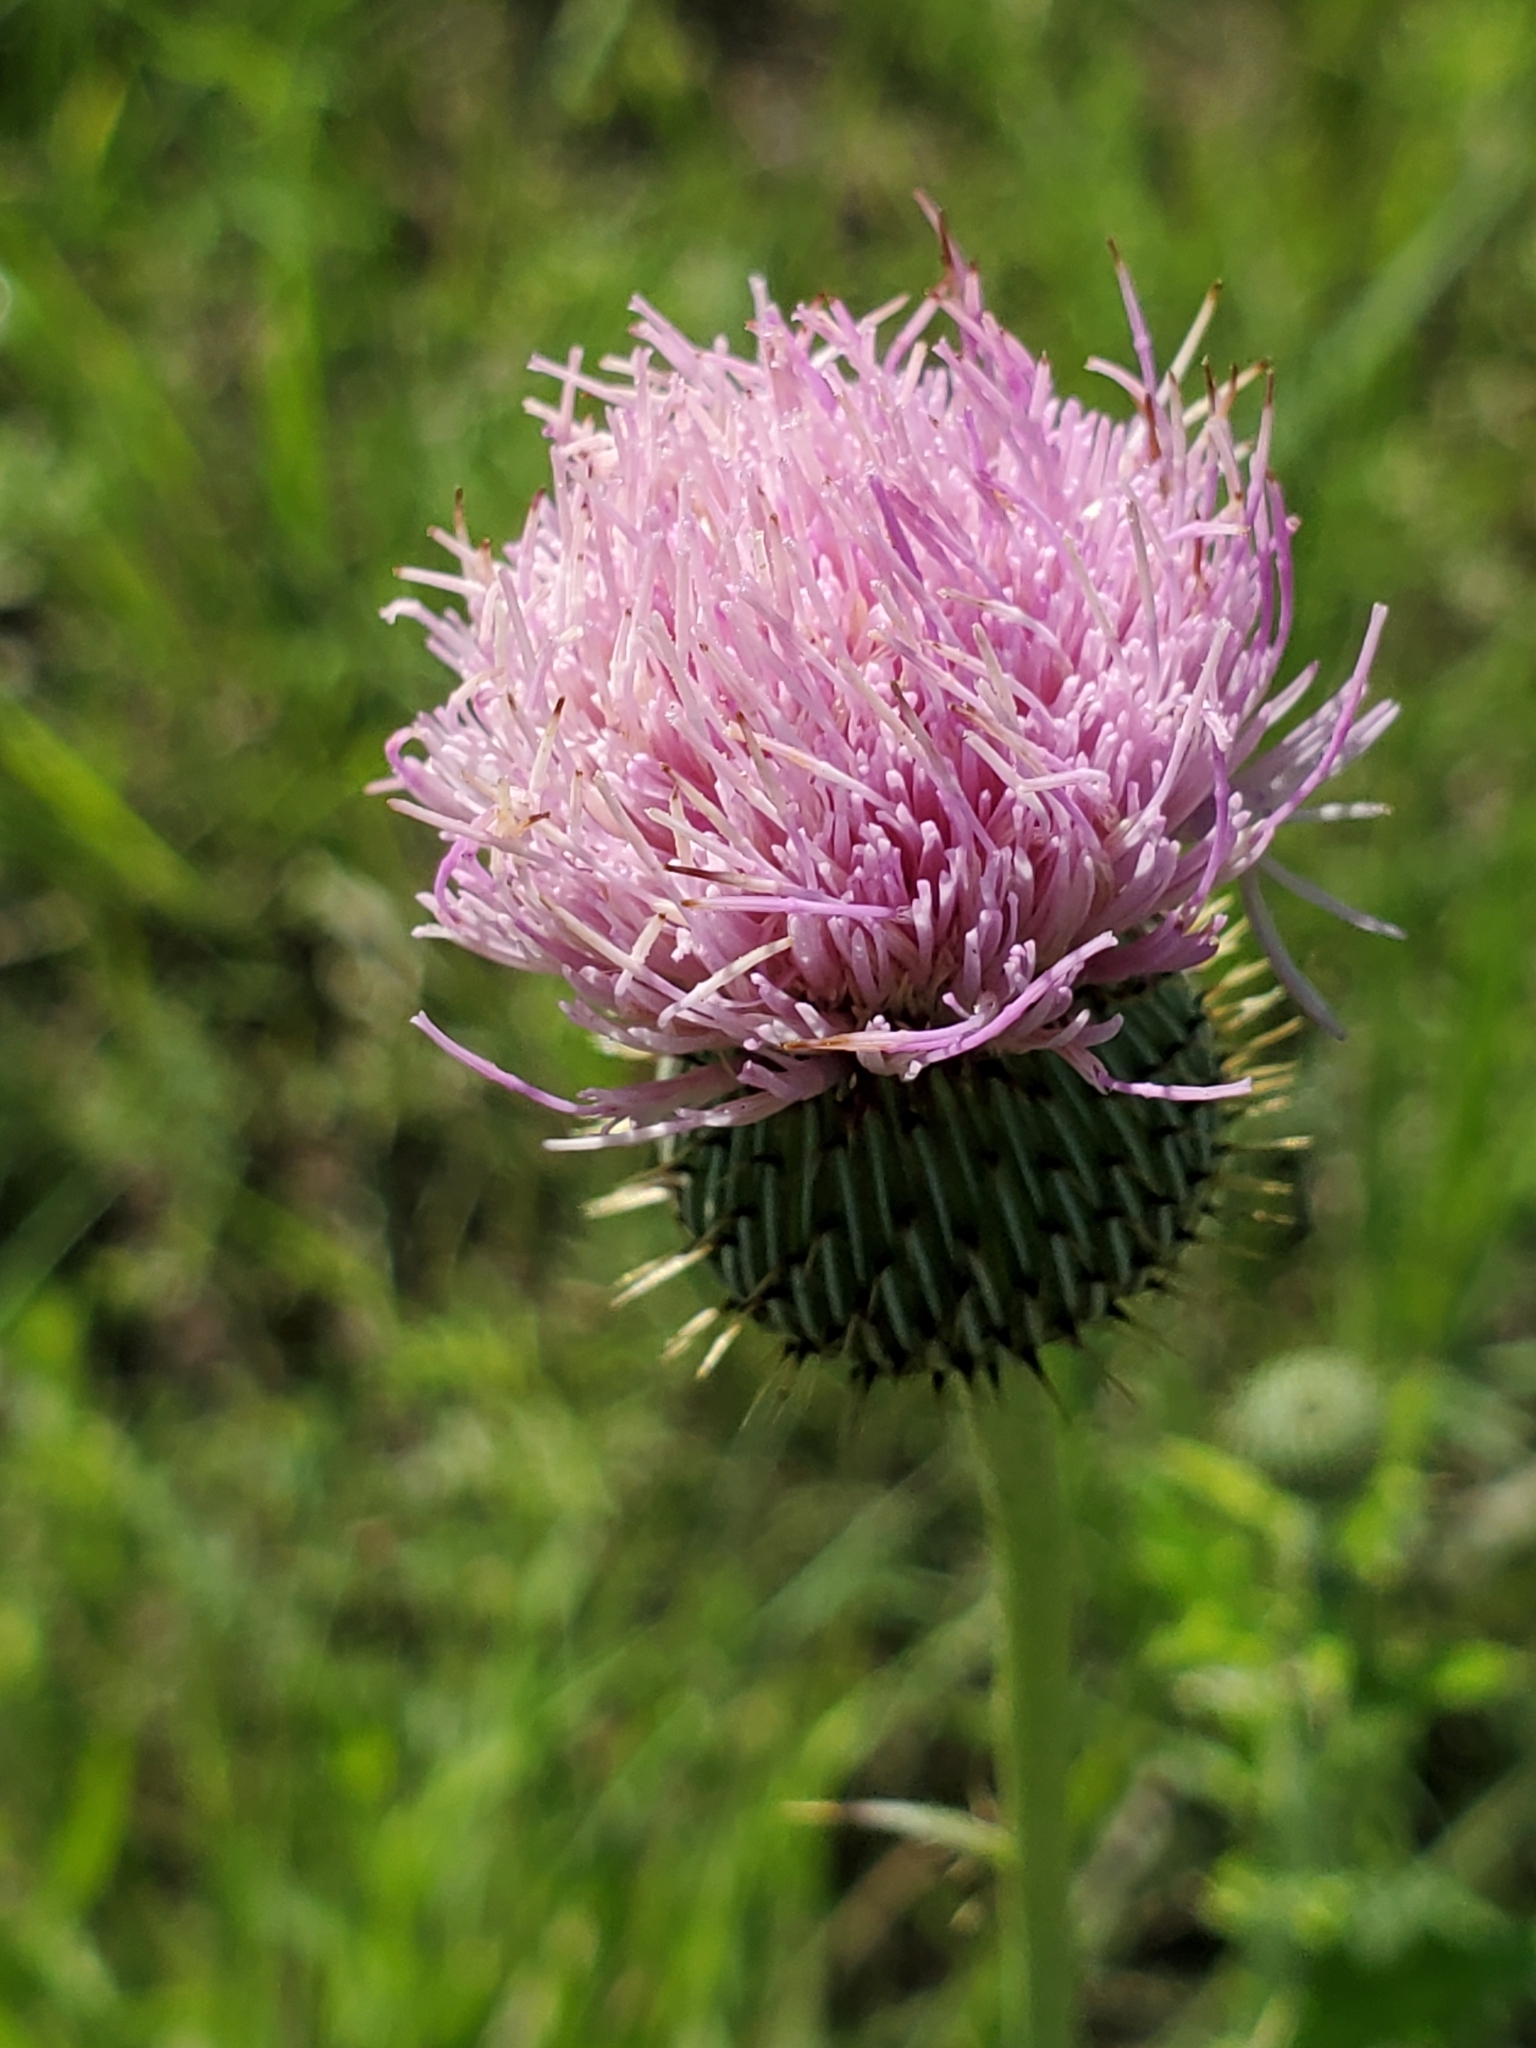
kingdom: Plantae
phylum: Tracheophyta
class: Magnoliopsida
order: Asterales
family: Asteraceae
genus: Cirsium
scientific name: Cirsium texanum
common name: Texas purple thistle
